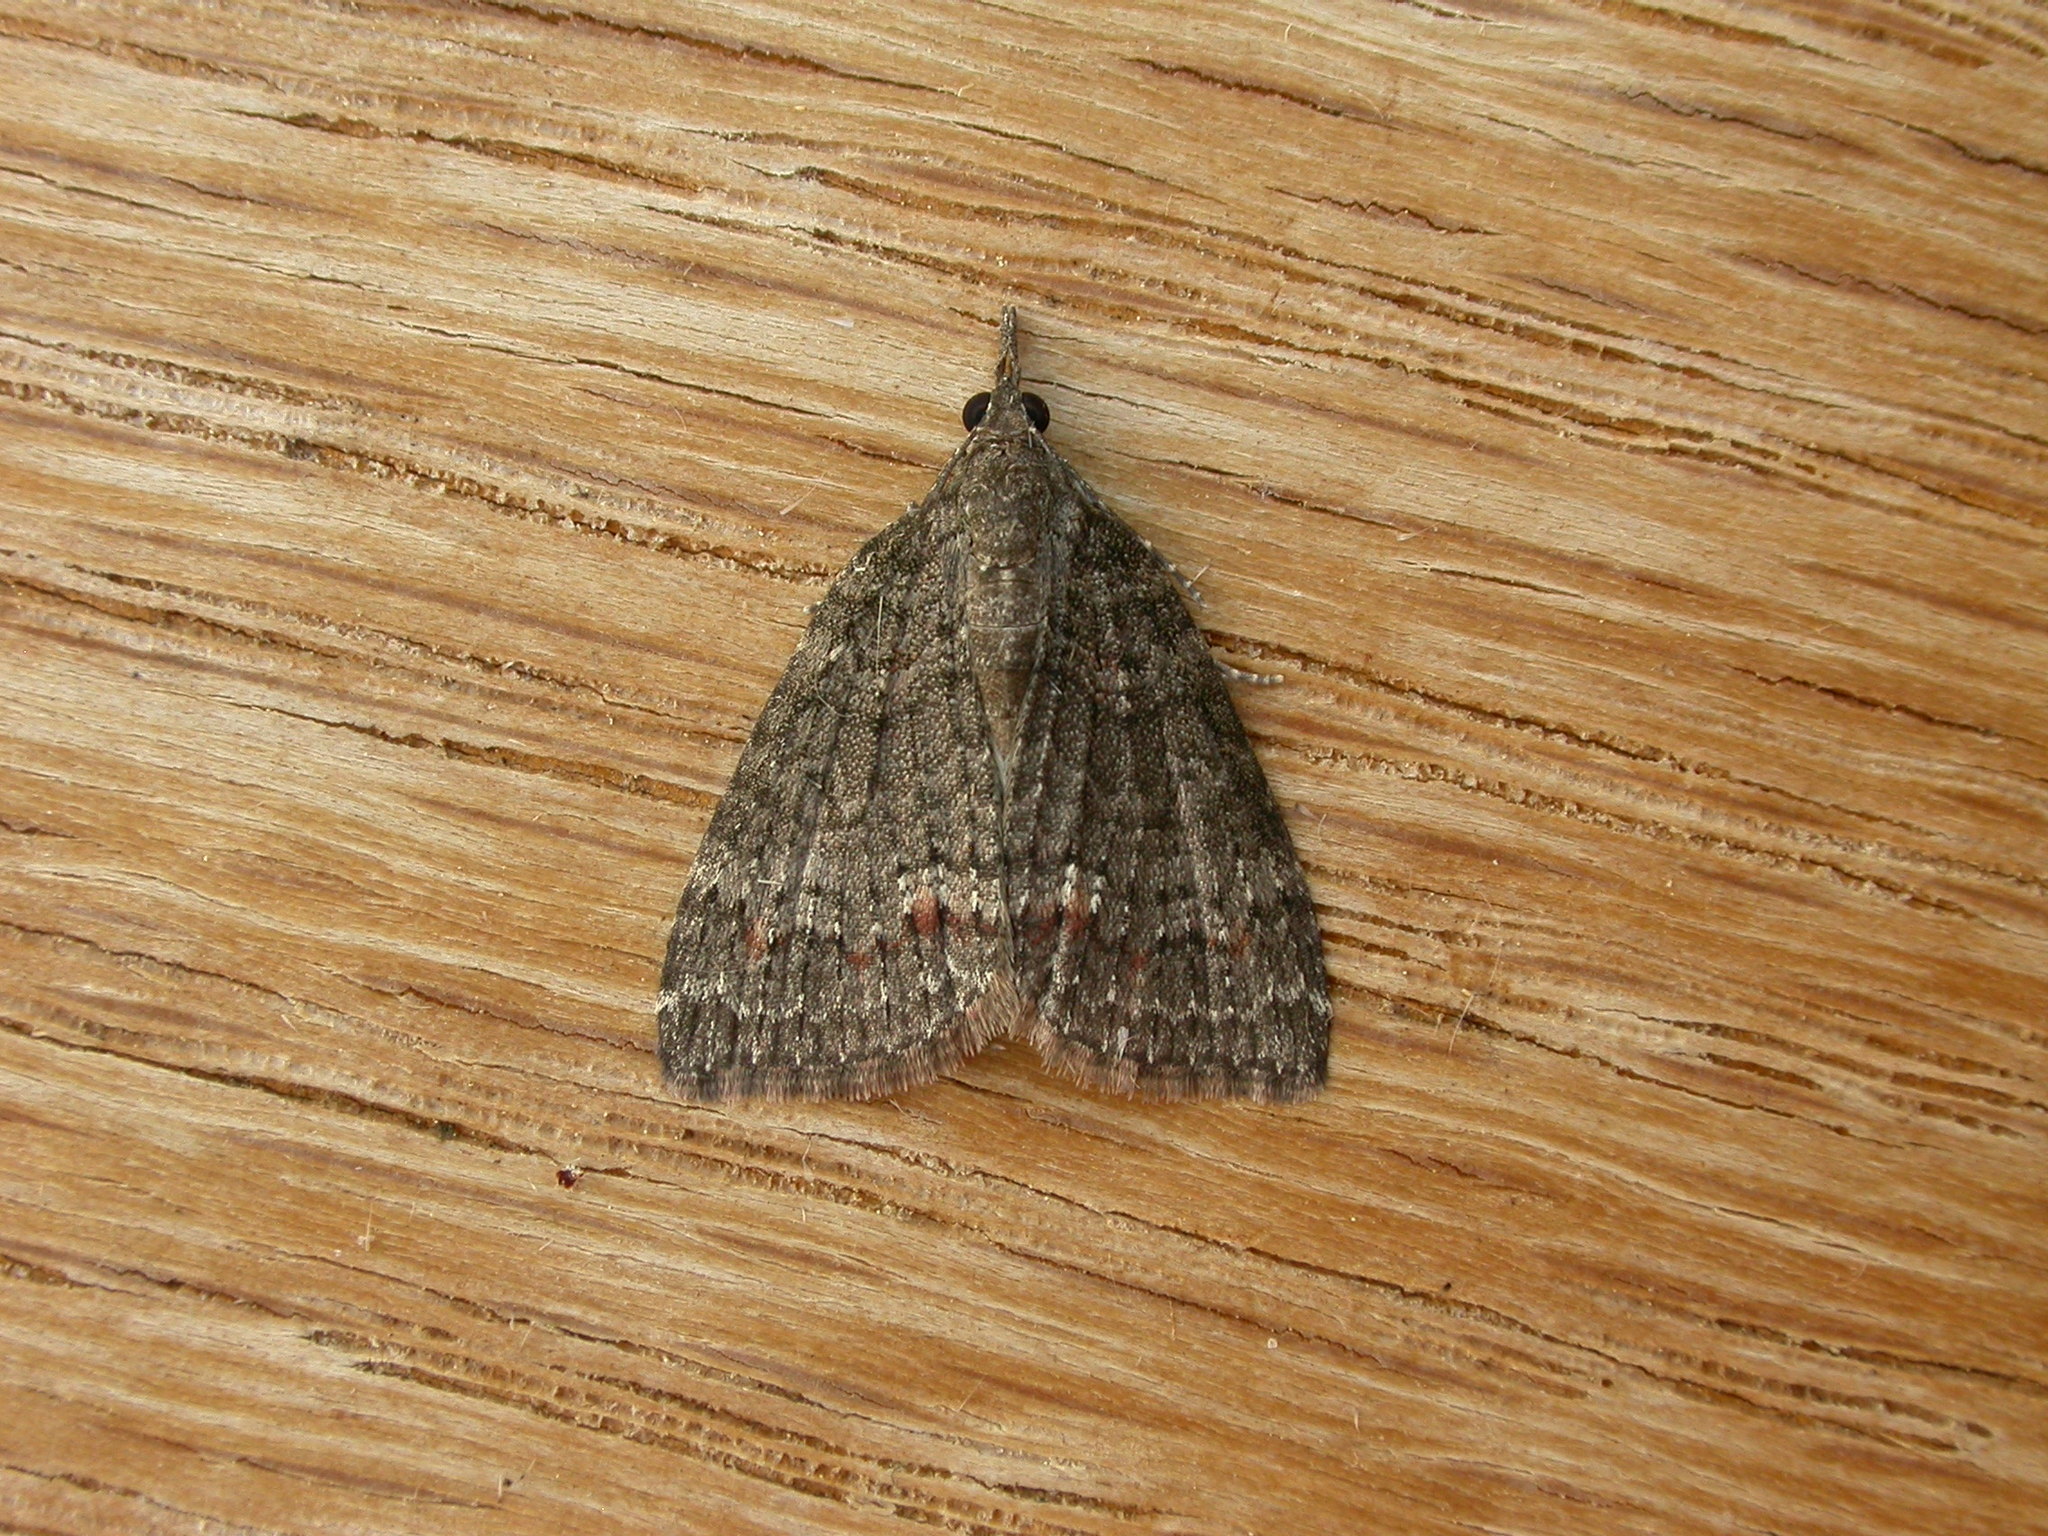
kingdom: Animalia
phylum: Arthropoda
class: Insecta
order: Lepidoptera
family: Geometridae
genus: Microdes
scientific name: Microdes squamulata
